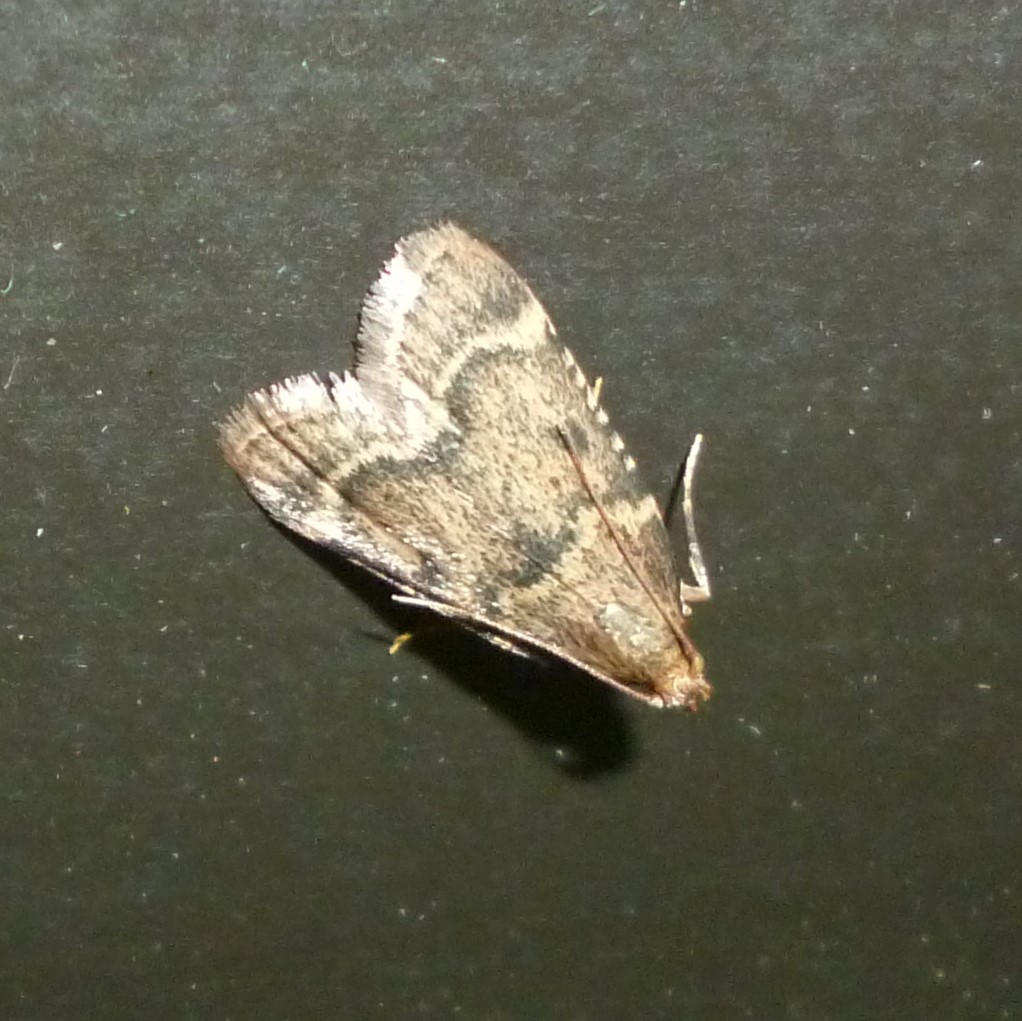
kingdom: Animalia
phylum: Arthropoda
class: Insecta
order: Lepidoptera
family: Pyralidae
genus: Aglossa
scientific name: Aglossa disciferalis
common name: Pink-masked pyralid moth
